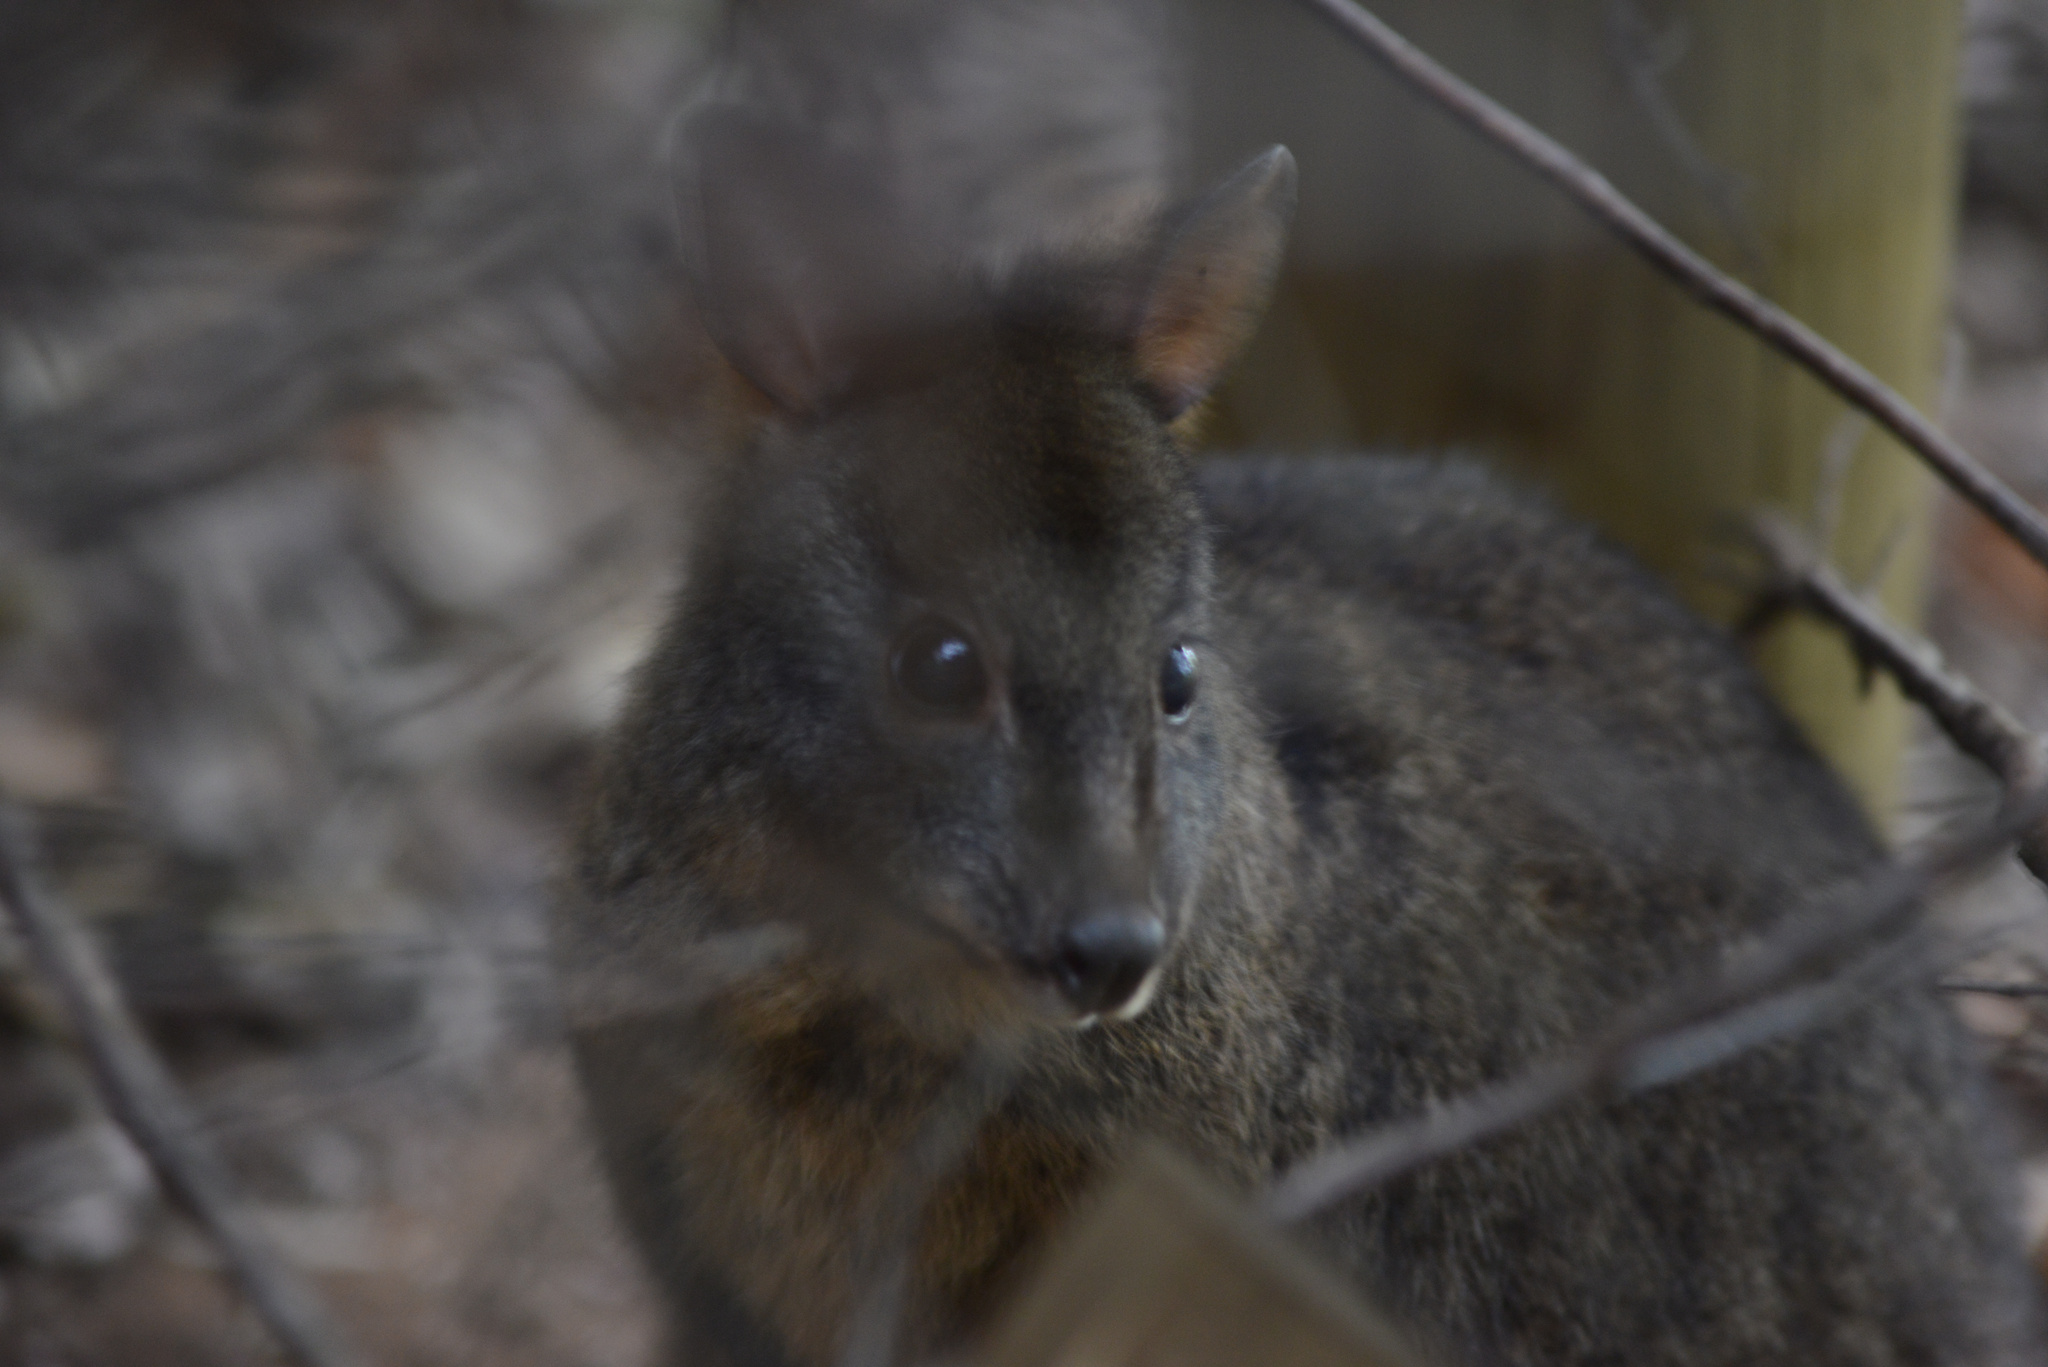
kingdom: Animalia
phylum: Chordata
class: Mammalia
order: Diprotodontia
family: Macropodidae
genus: Thylogale
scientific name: Thylogale billardierii
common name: Tasmanian pademelon
